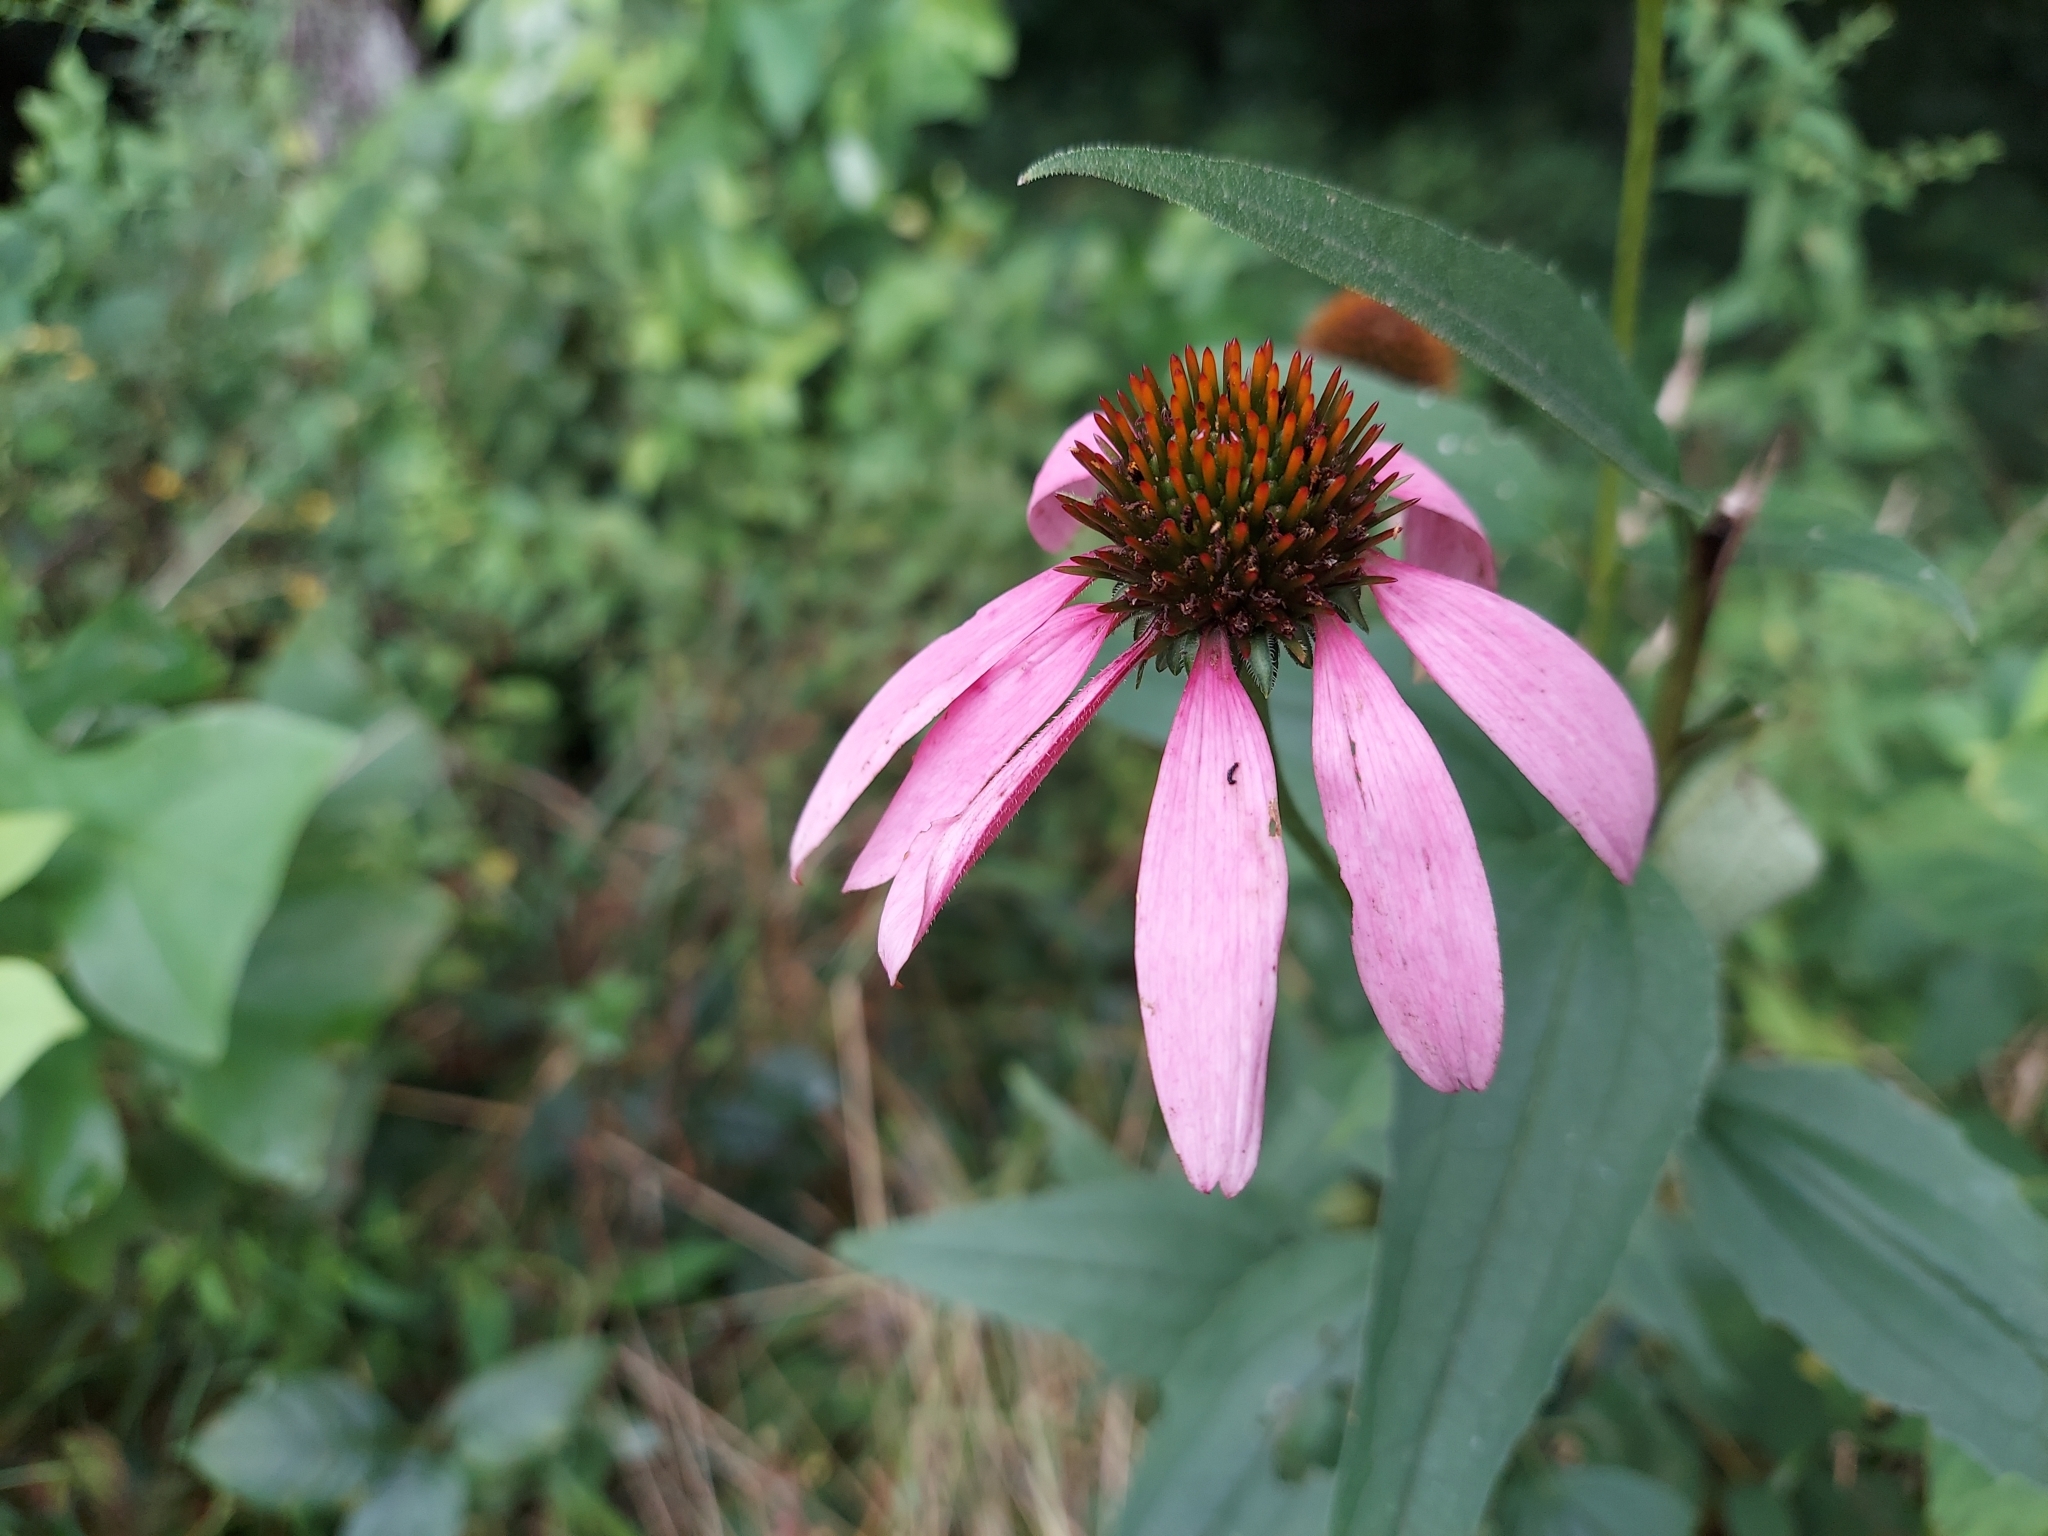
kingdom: Plantae
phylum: Tracheophyta
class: Magnoliopsida
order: Asterales
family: Asteraceae
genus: Echinacea
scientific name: Echinacea purpurea
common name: Broad-leaved purple coneflower
